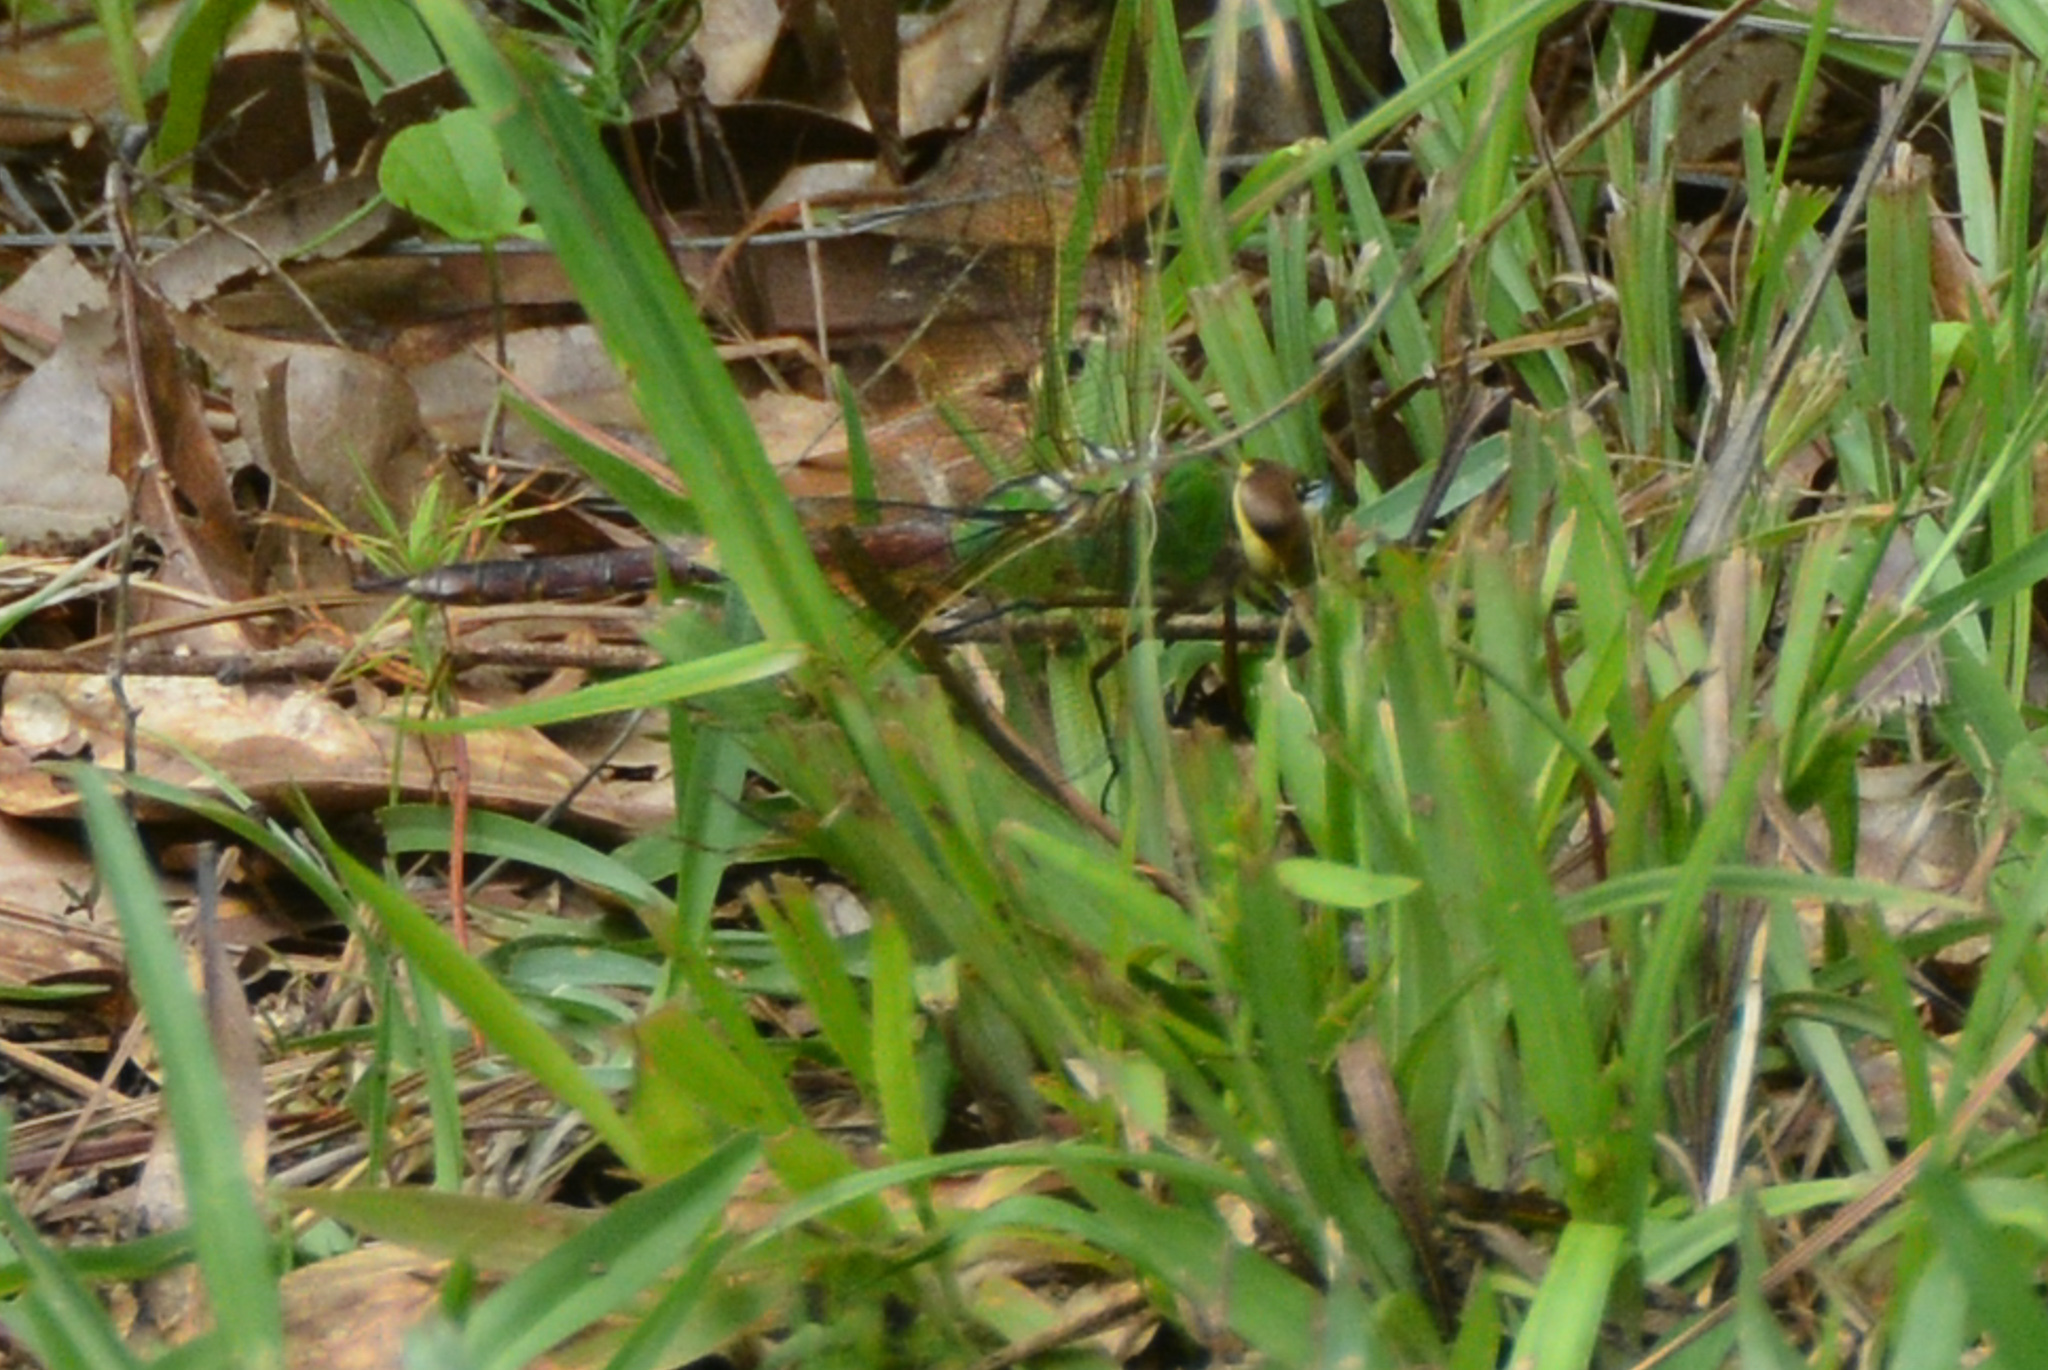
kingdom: Animalia
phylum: Arthropoda
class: Insecta
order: Odonata
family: Aeshnidae
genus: Anax
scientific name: Anax junius
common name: Common green darner
